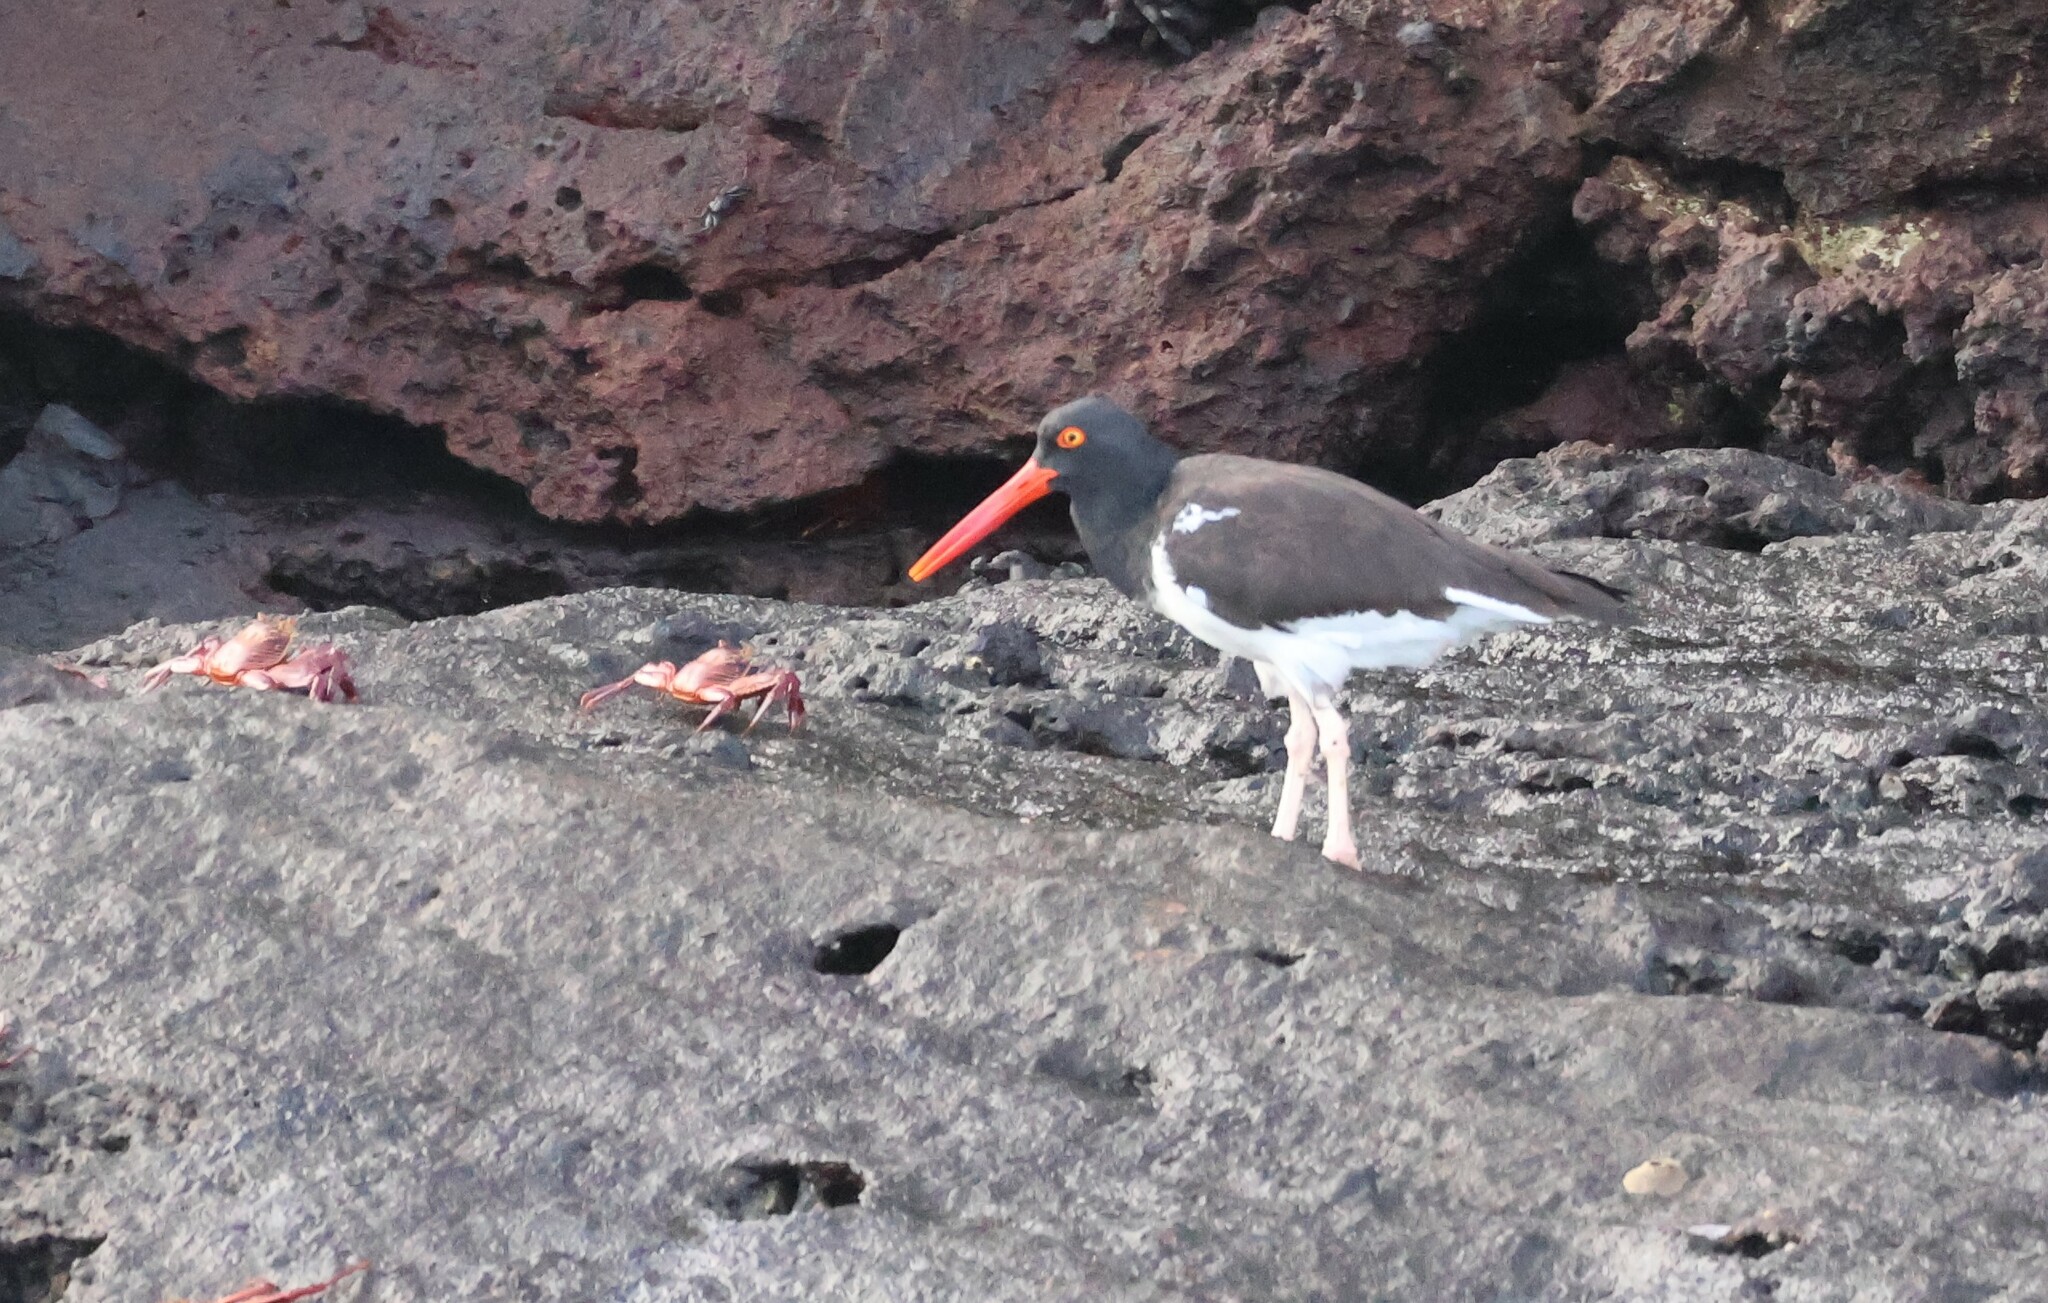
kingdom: Animalia
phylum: Chordata
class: Aves
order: Charadriiformes
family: Haematopodidae
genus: Haematopus
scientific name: Haematopus palliatus
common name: American oystercatcher
